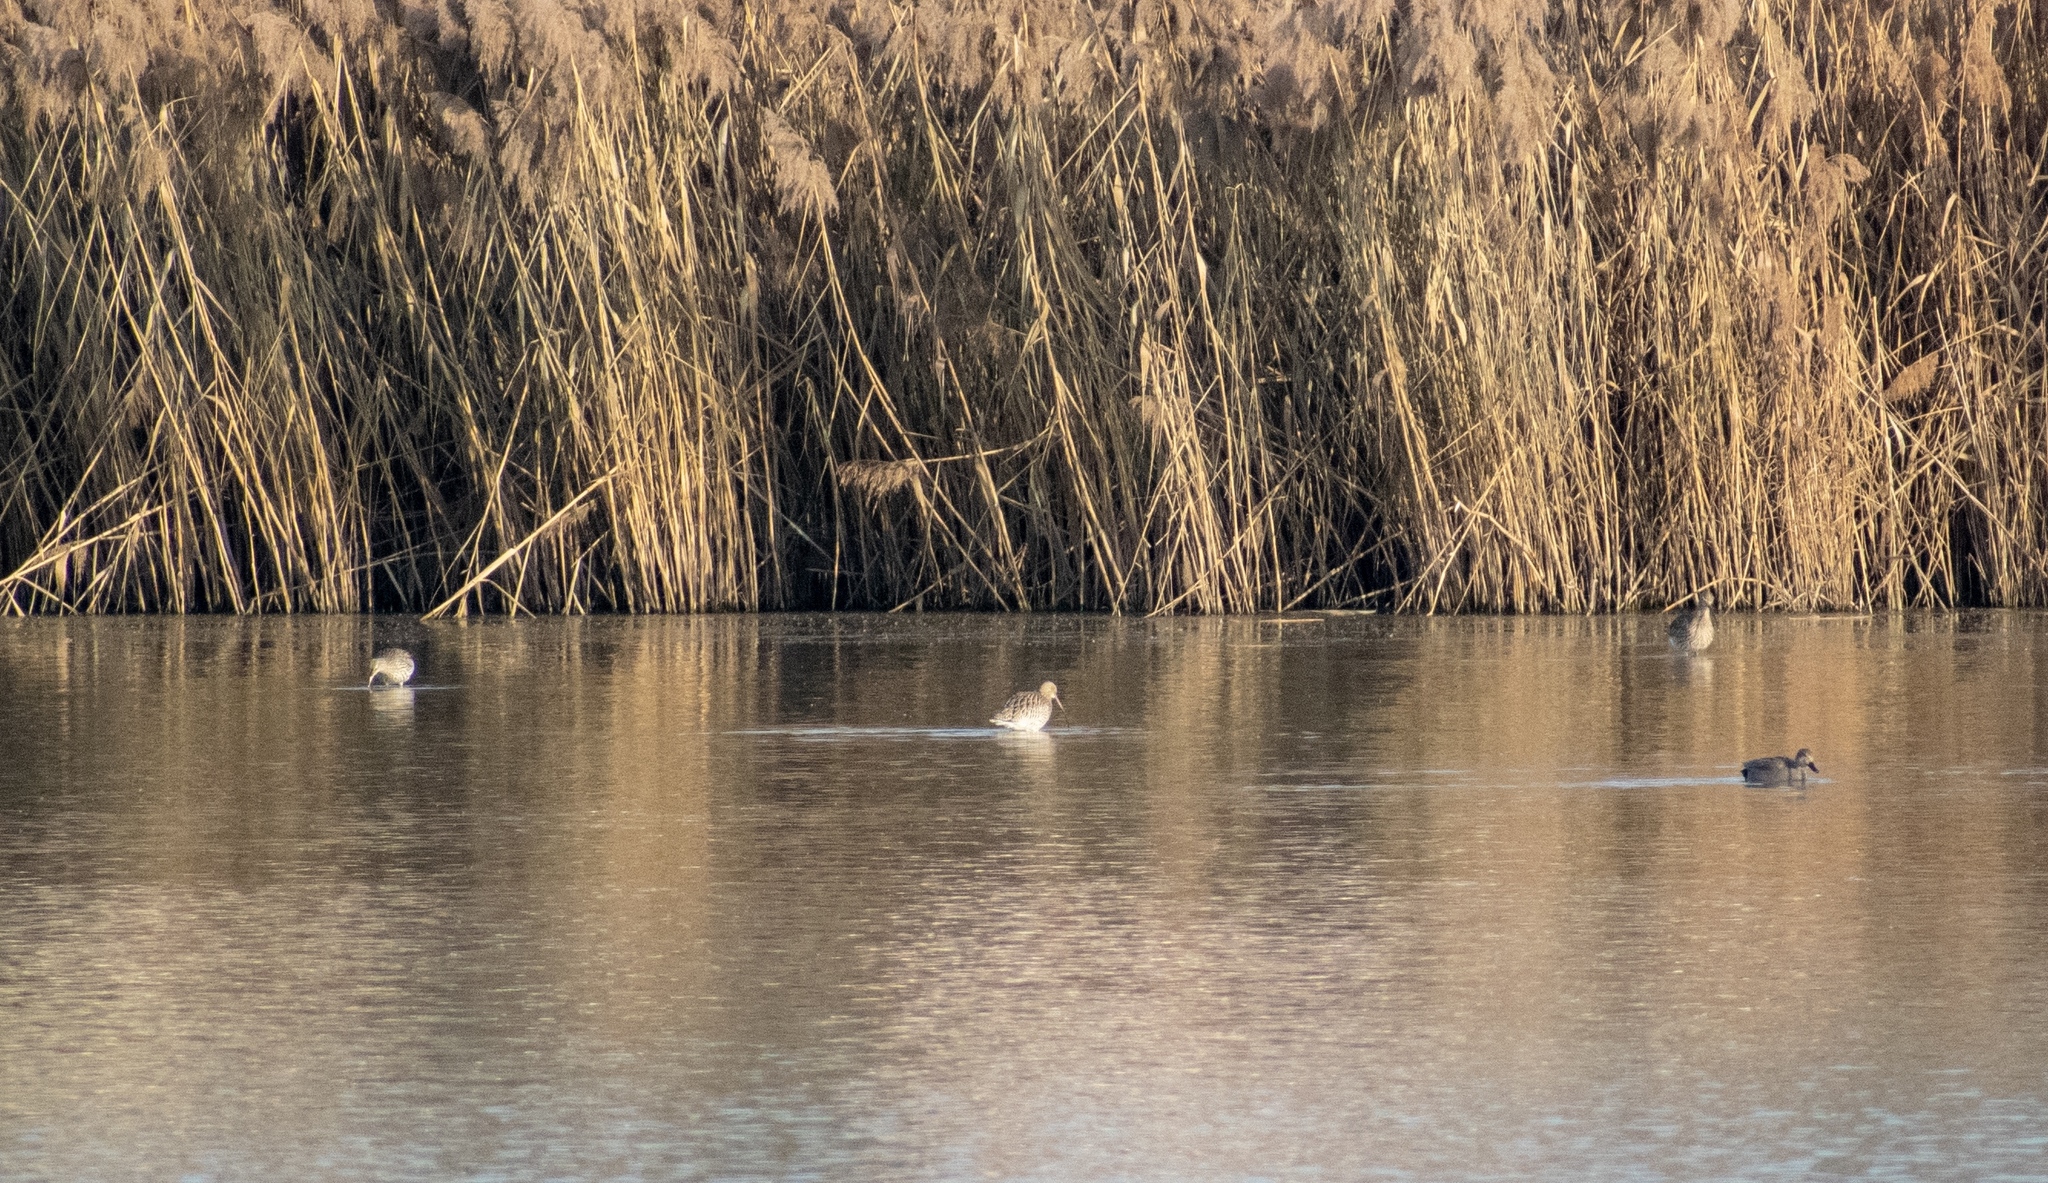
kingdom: Animalia
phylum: Chordata
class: Aves
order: Charadriiformes
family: Scolopacidae
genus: Numenius
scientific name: Numenius arquata
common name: Eurasian curlew
